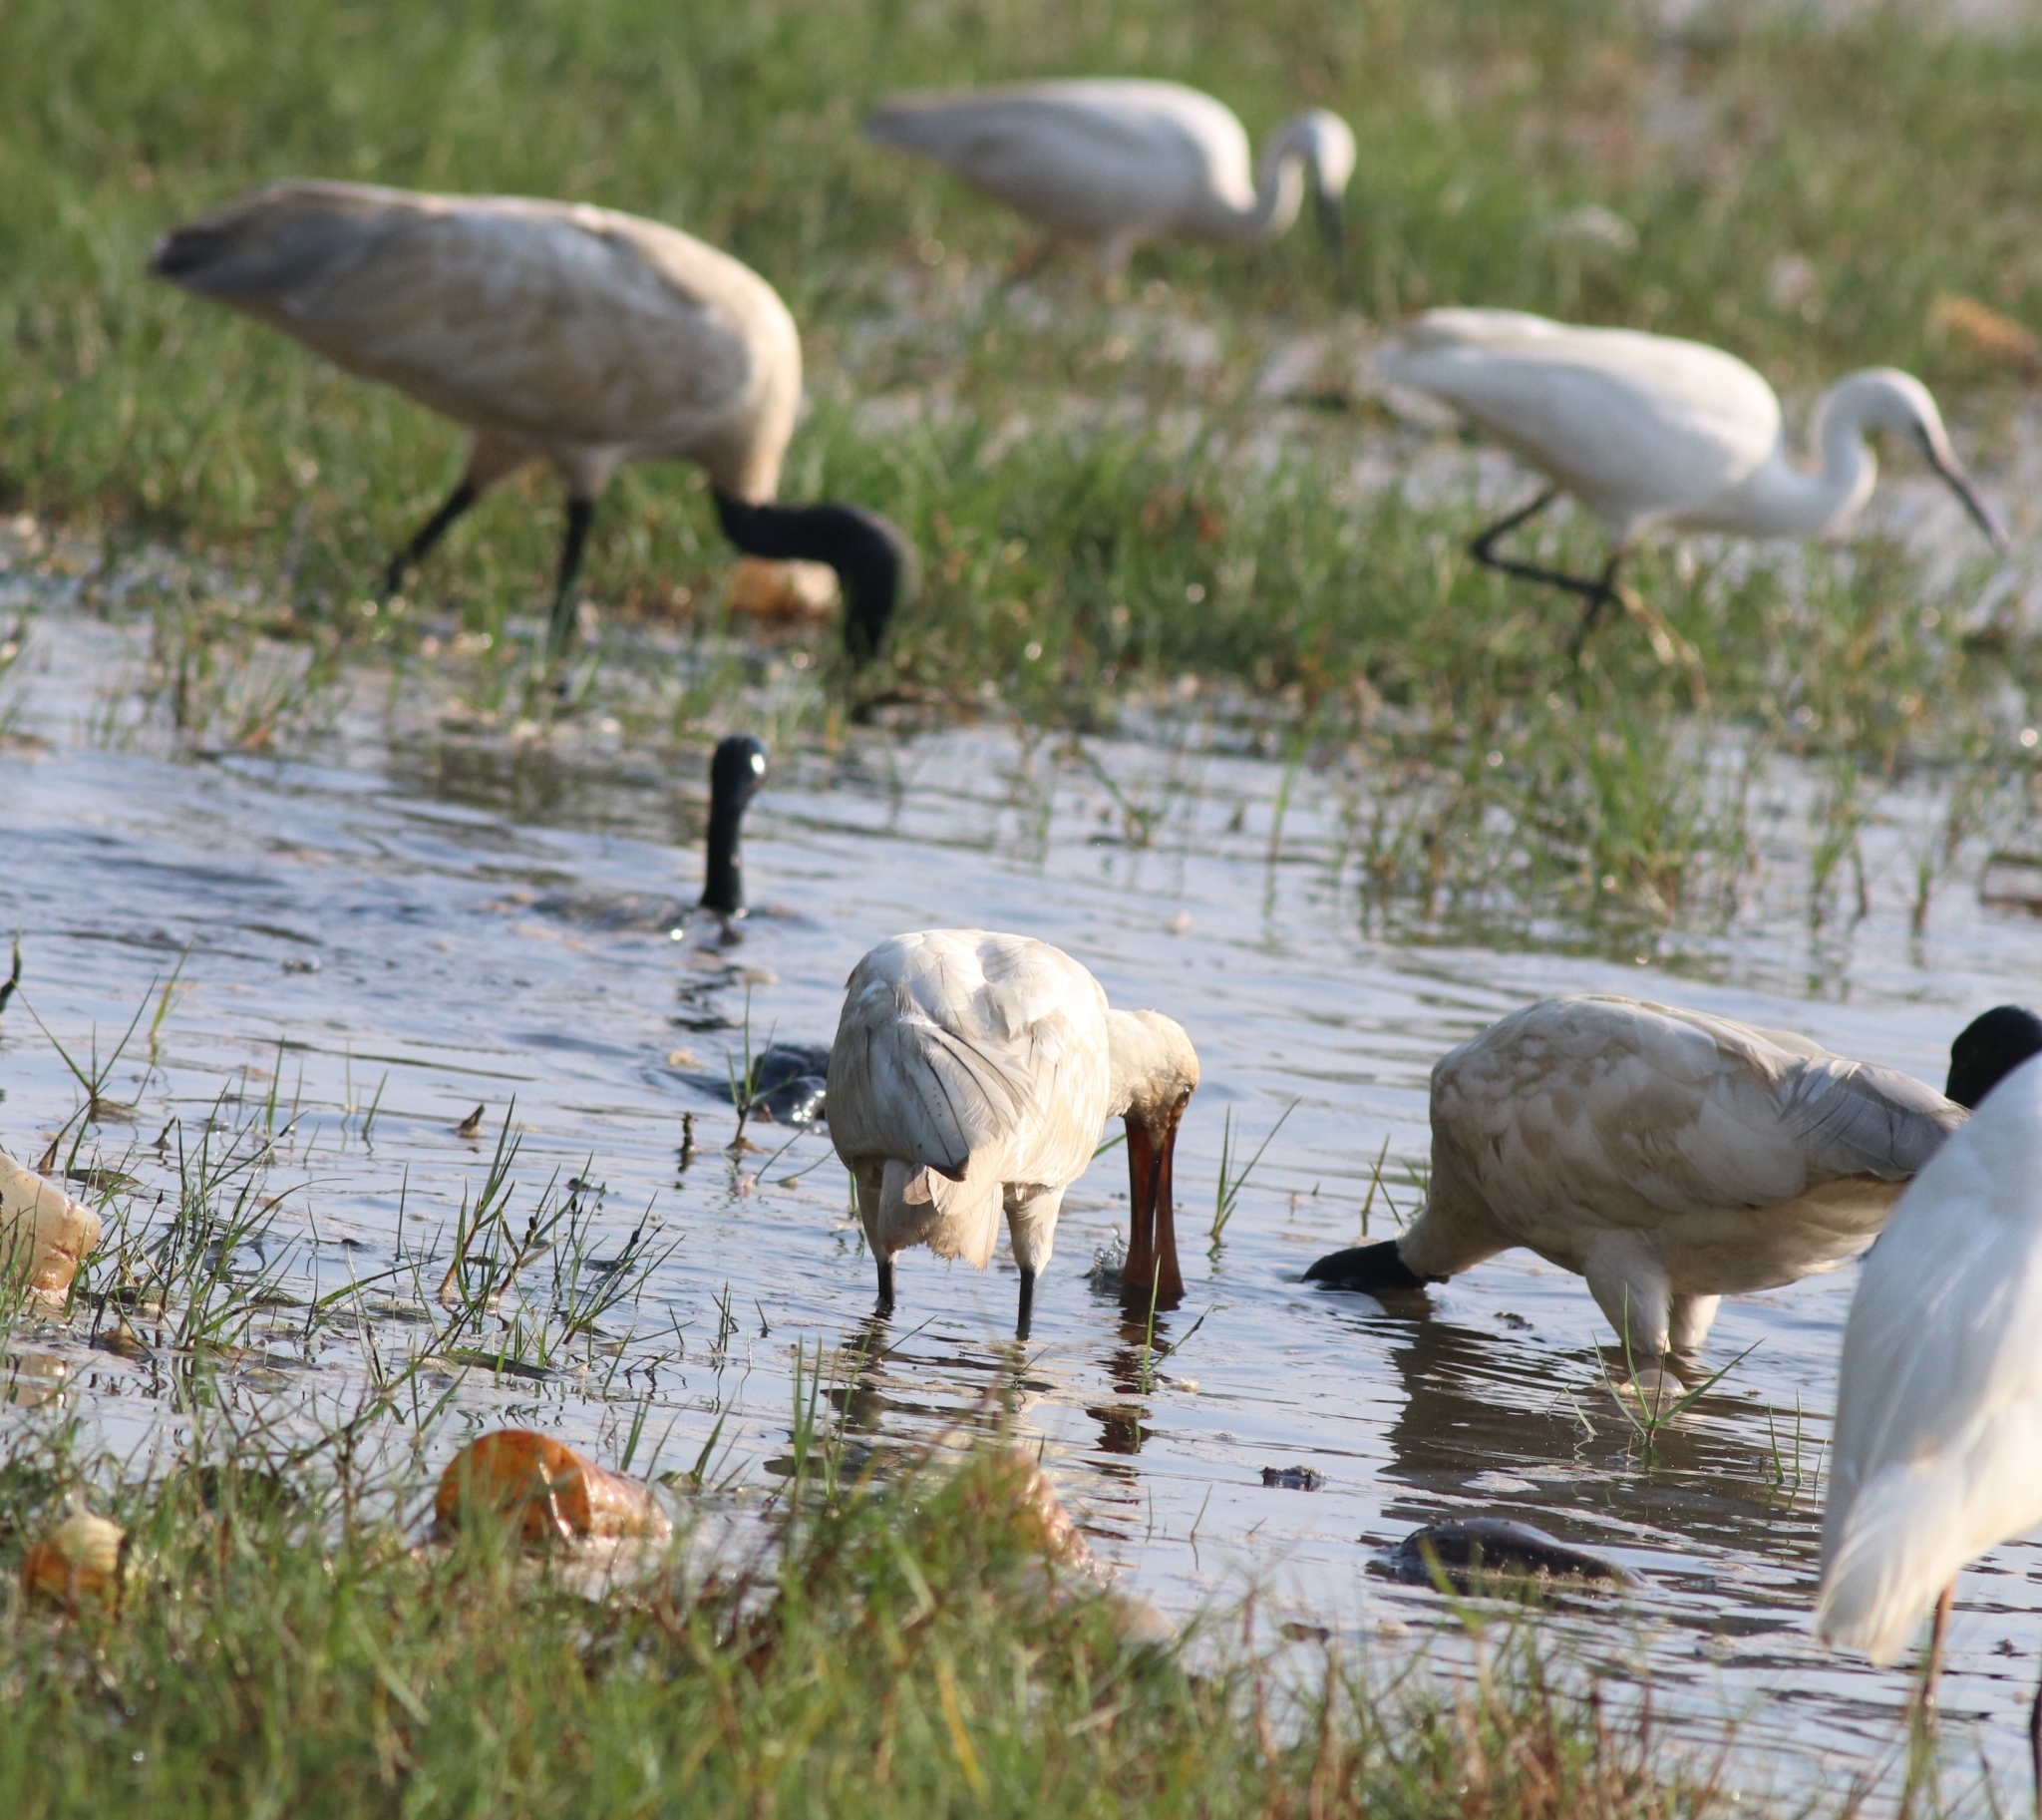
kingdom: Animalia
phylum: Chordata
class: Aves
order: Pelecaniformes
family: Threskiornithidae
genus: Threskiornis
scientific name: Threskiornis melanocephalus
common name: Black-headed ibis
